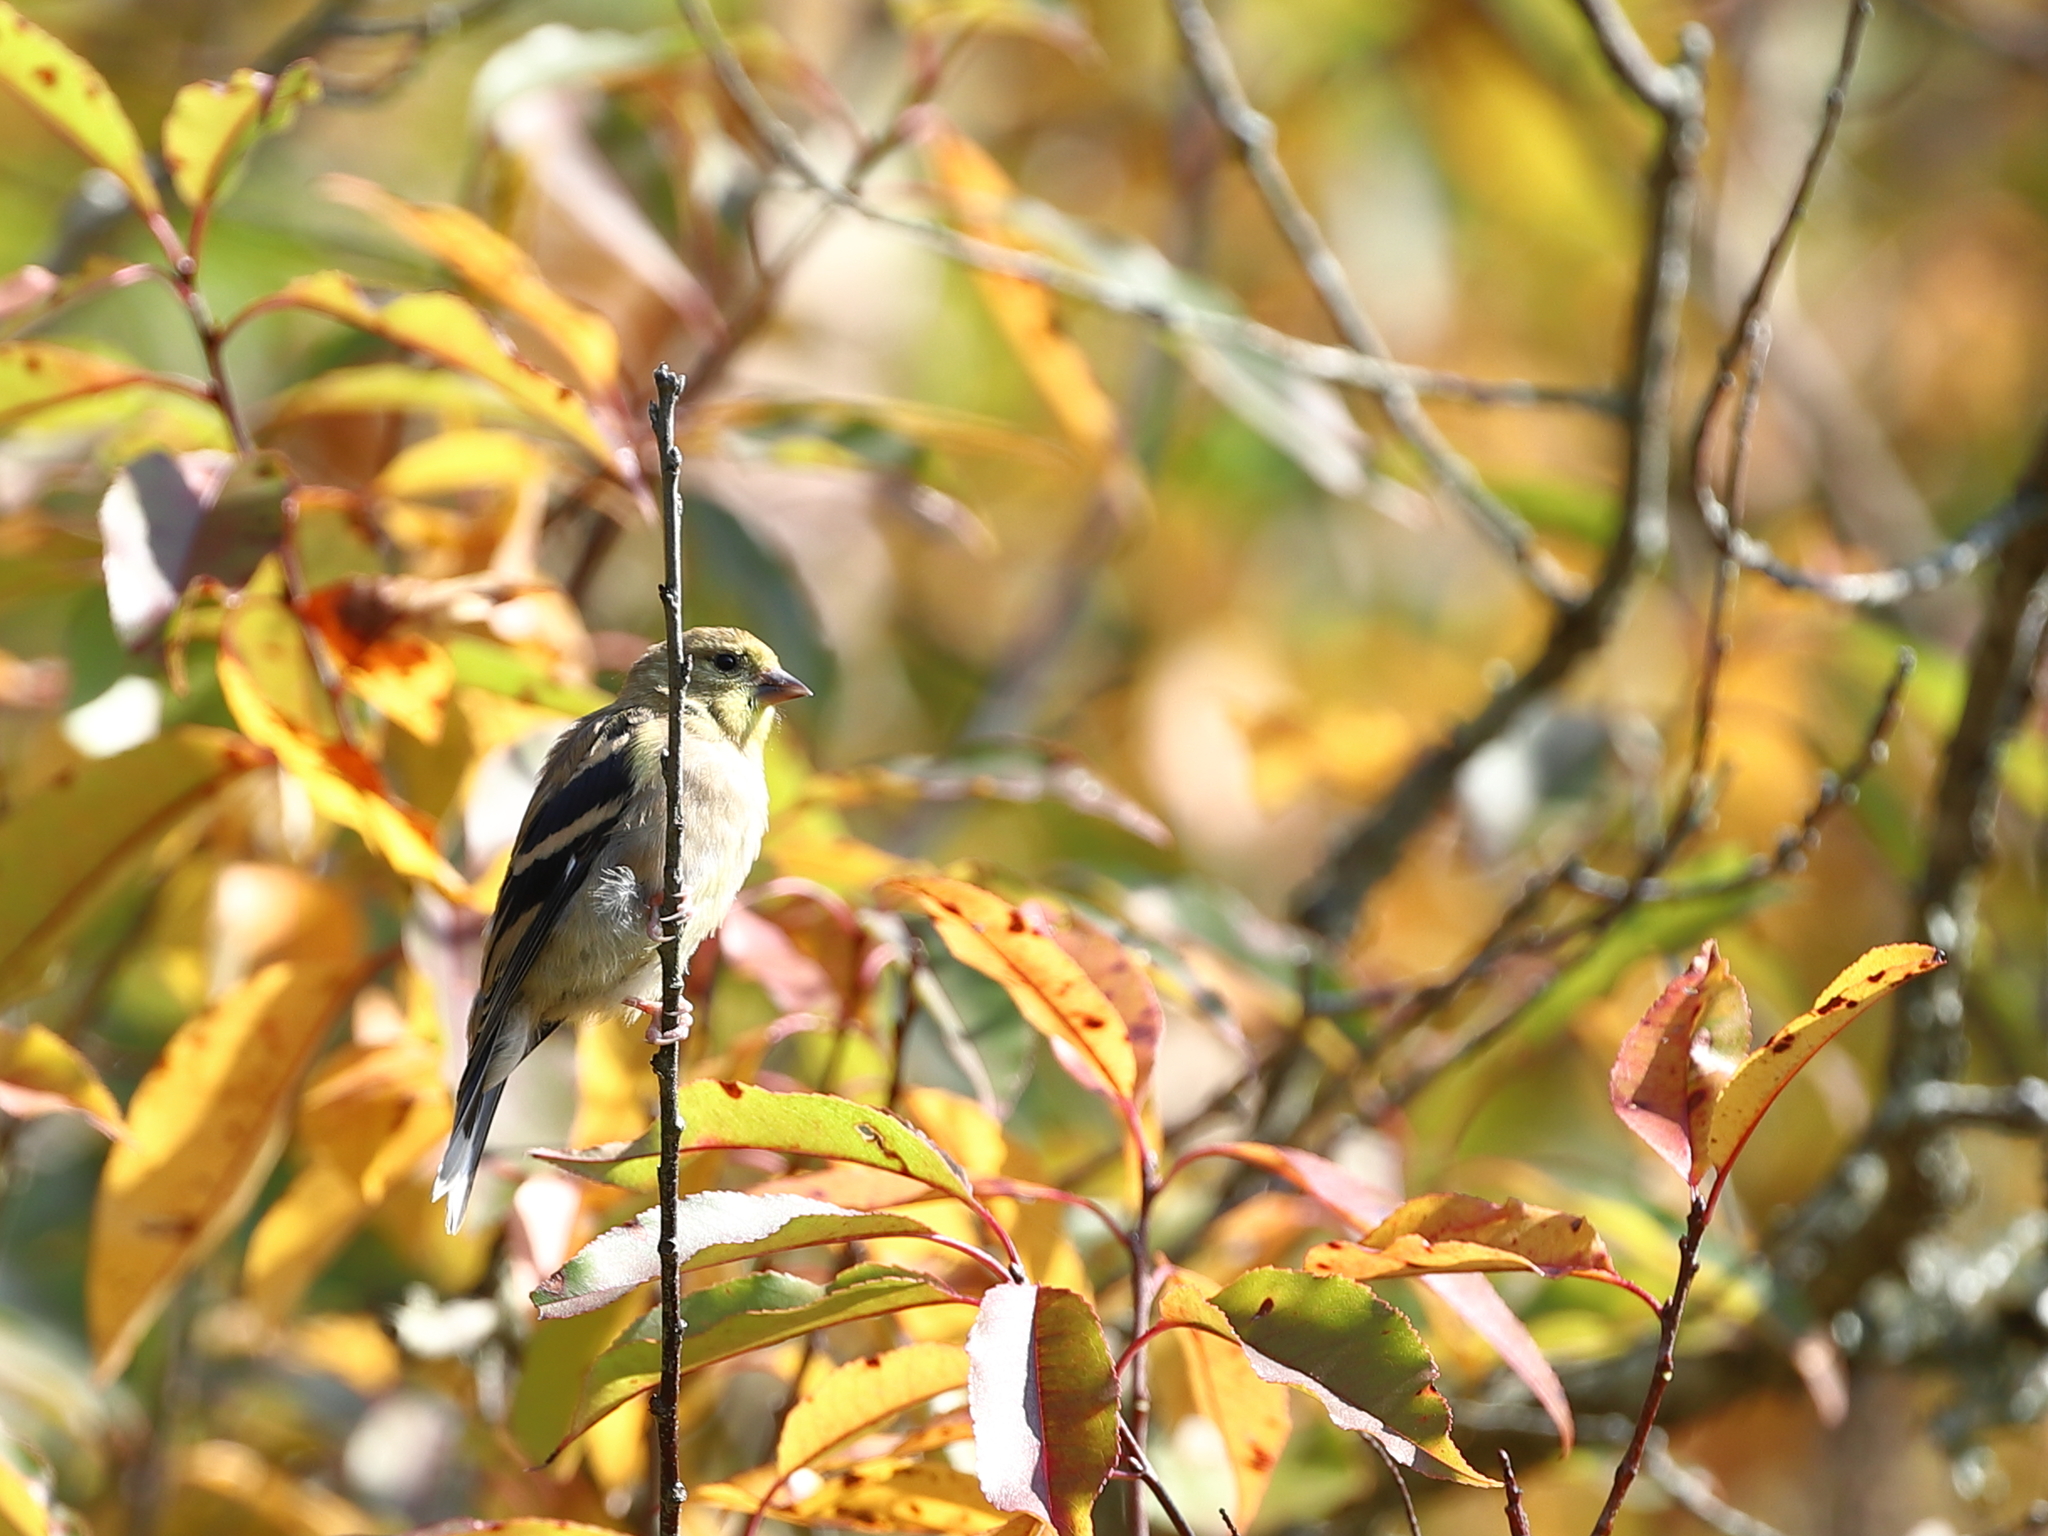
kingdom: Animalia
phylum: Chordata
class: Aves
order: Passeriformes
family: Fringillidae
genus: Spinus
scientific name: Spinus tristis
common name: American goldfinch
